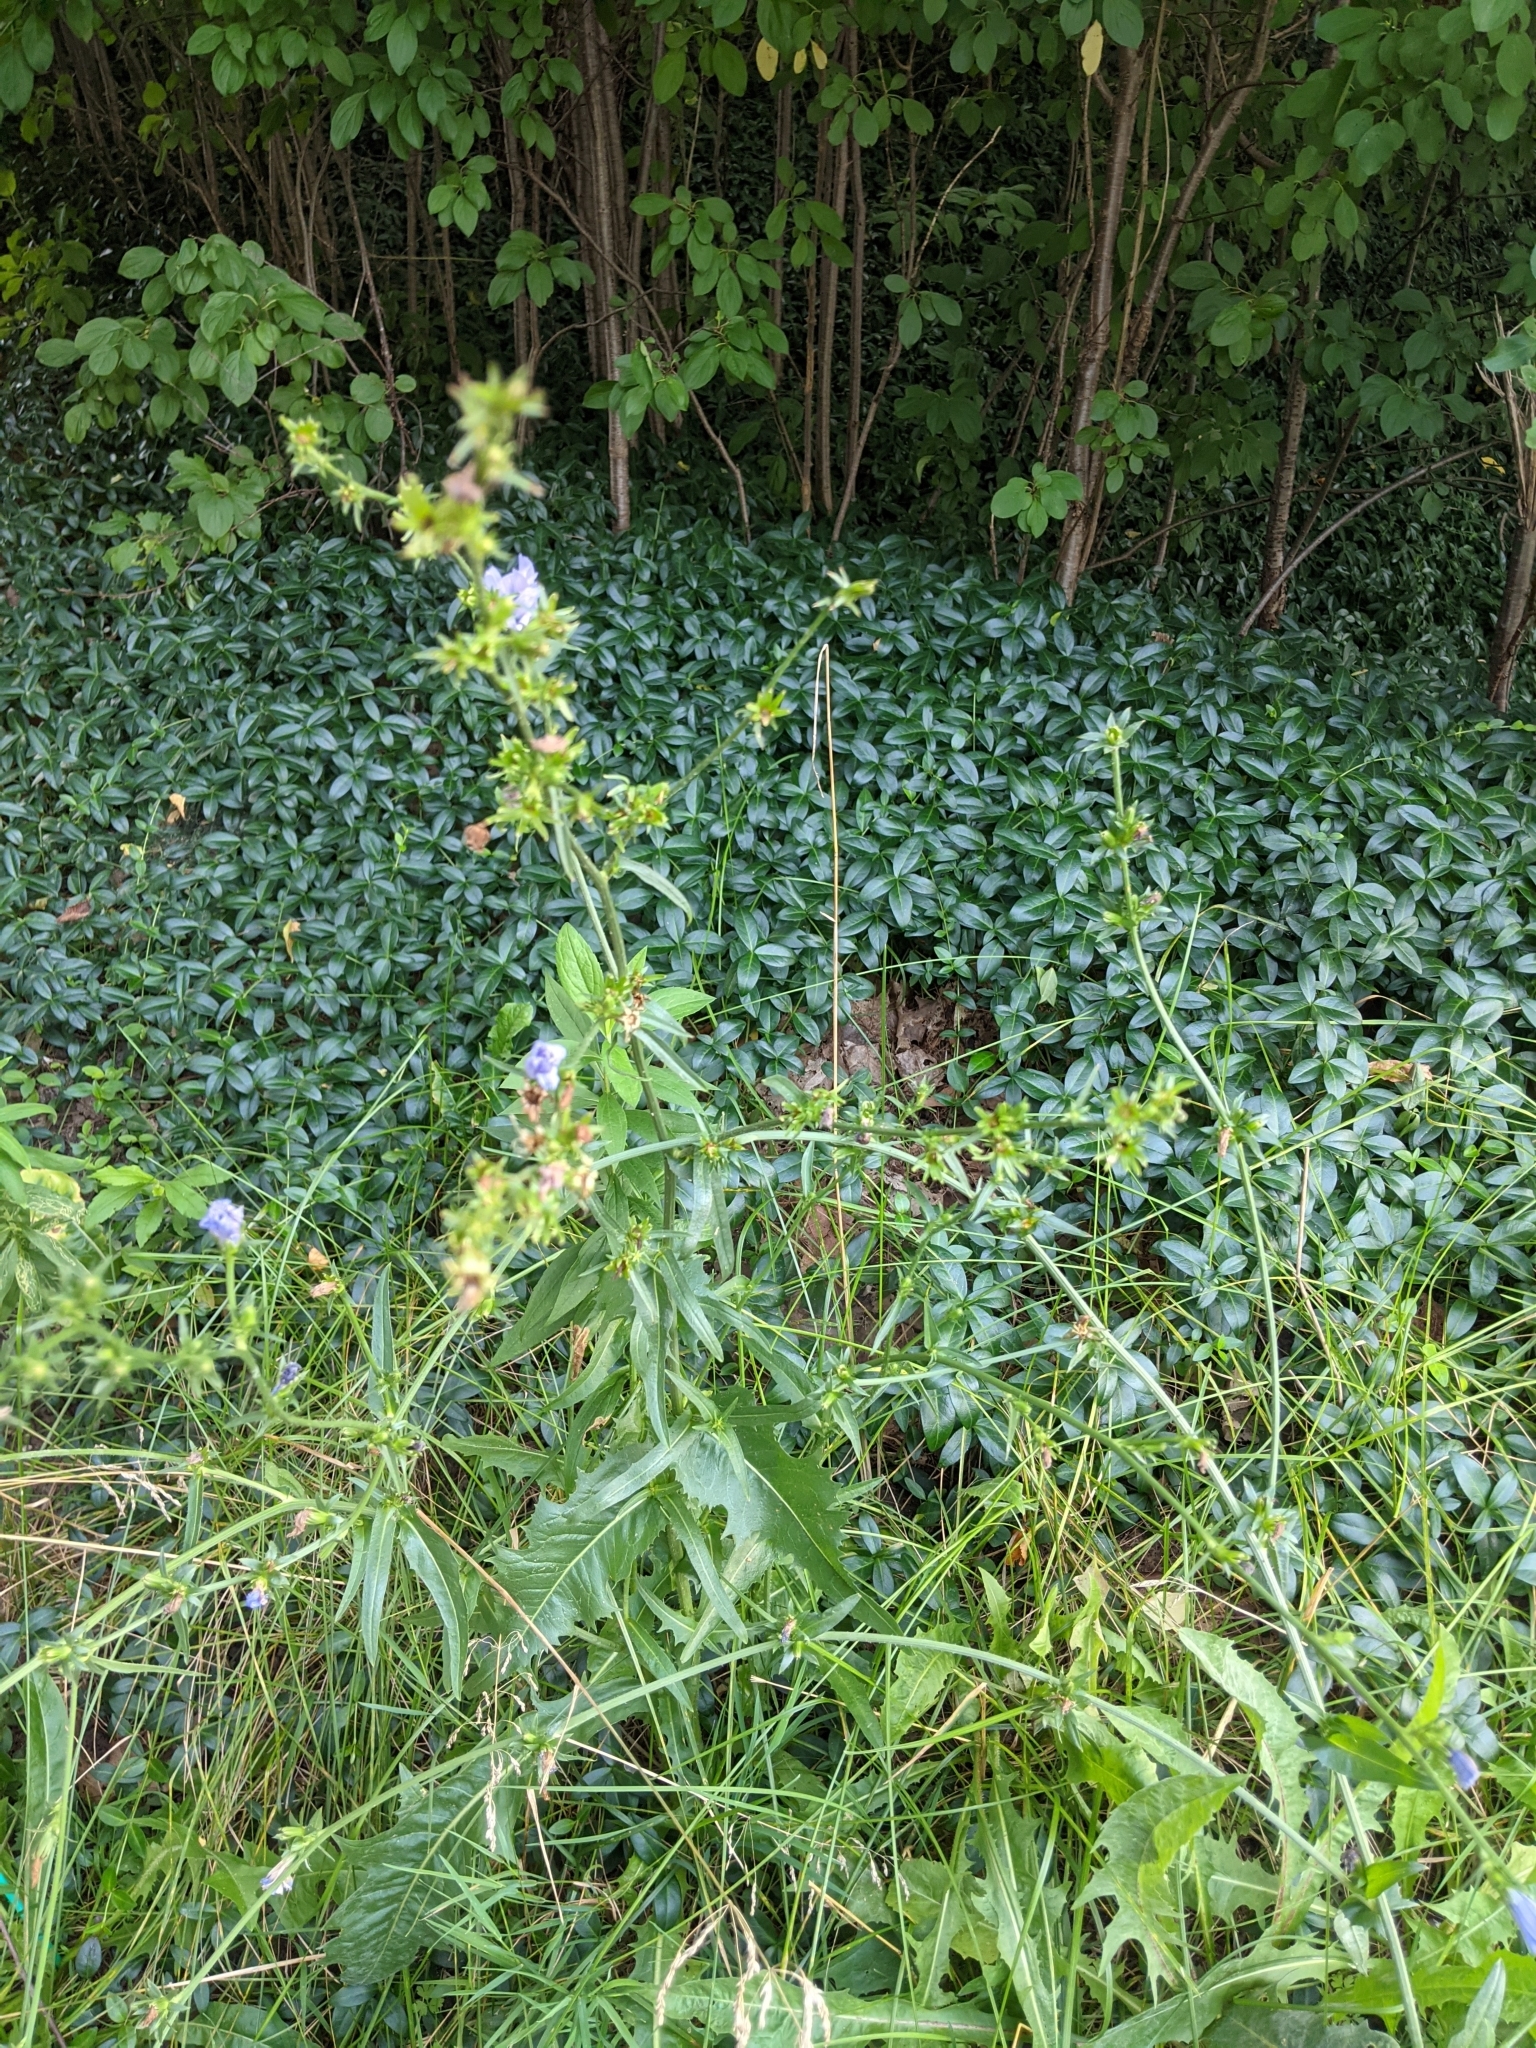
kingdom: Plantae
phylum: Tracheophyta
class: Magnoliopsida
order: Asterales
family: Asteraceae
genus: Cichorium
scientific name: Cichorium intybus
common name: Chicory
